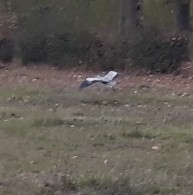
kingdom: Animalia
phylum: Chordata
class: Aves
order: Pelecaniformes
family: Ardeidae
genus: Ardea
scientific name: Ardea cinerea
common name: Grey heron
